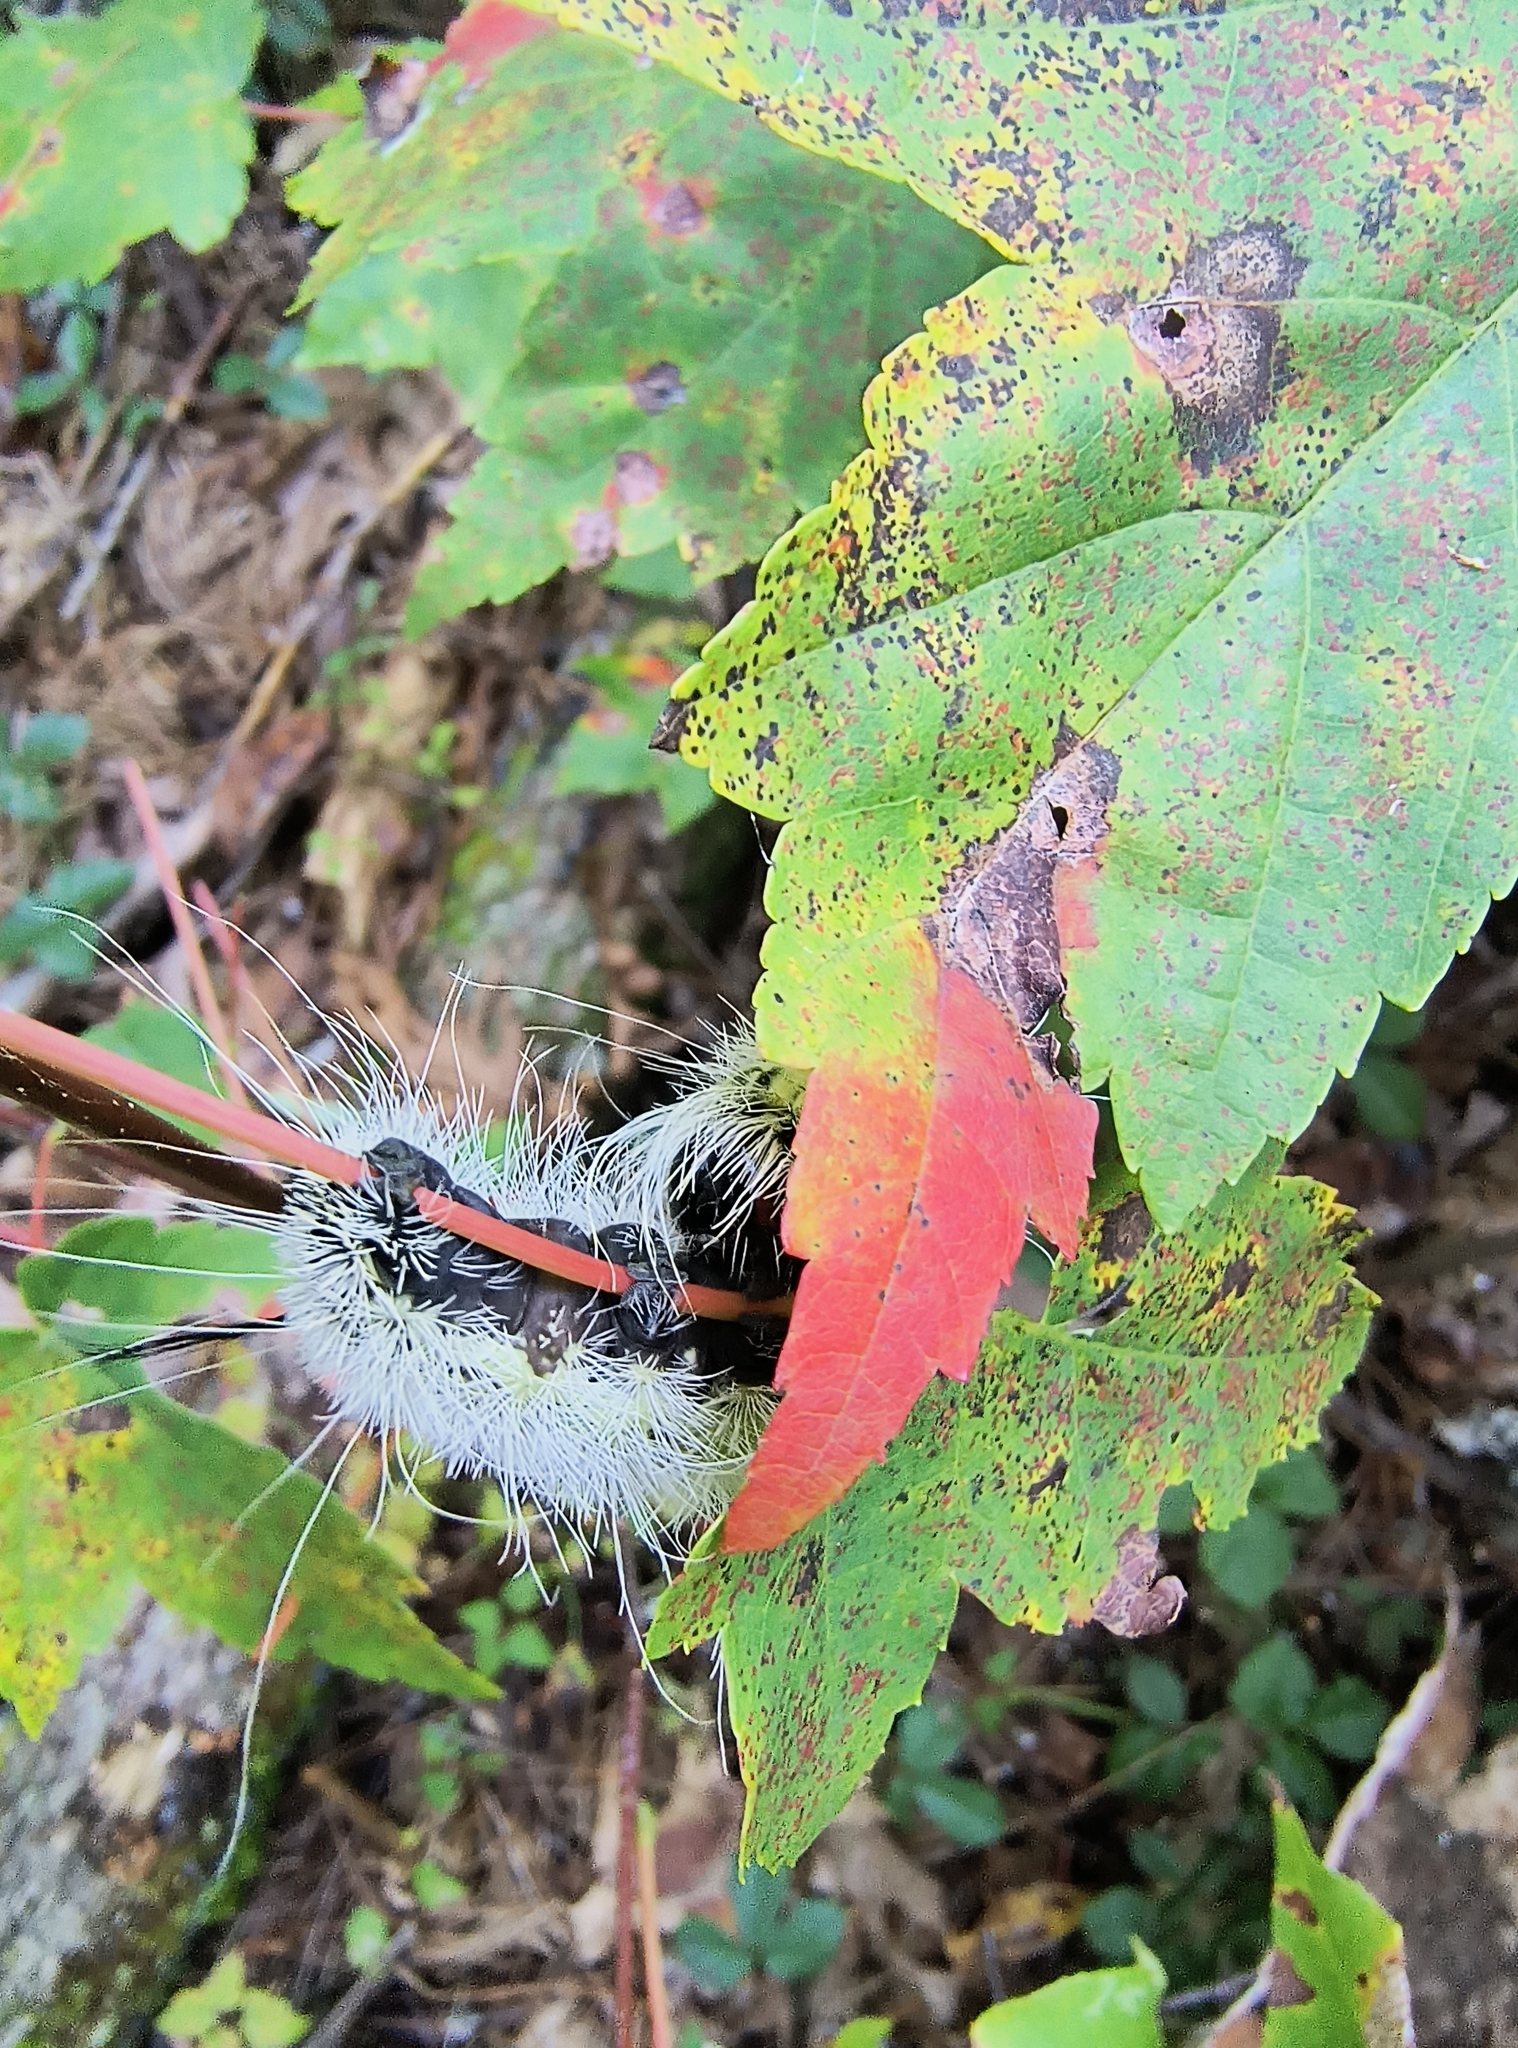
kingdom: Animalia
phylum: Arthropoda
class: Insecta
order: Lepidoptera
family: Noctuidae
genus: Acronicta
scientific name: Acronicta americana
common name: American dagger
